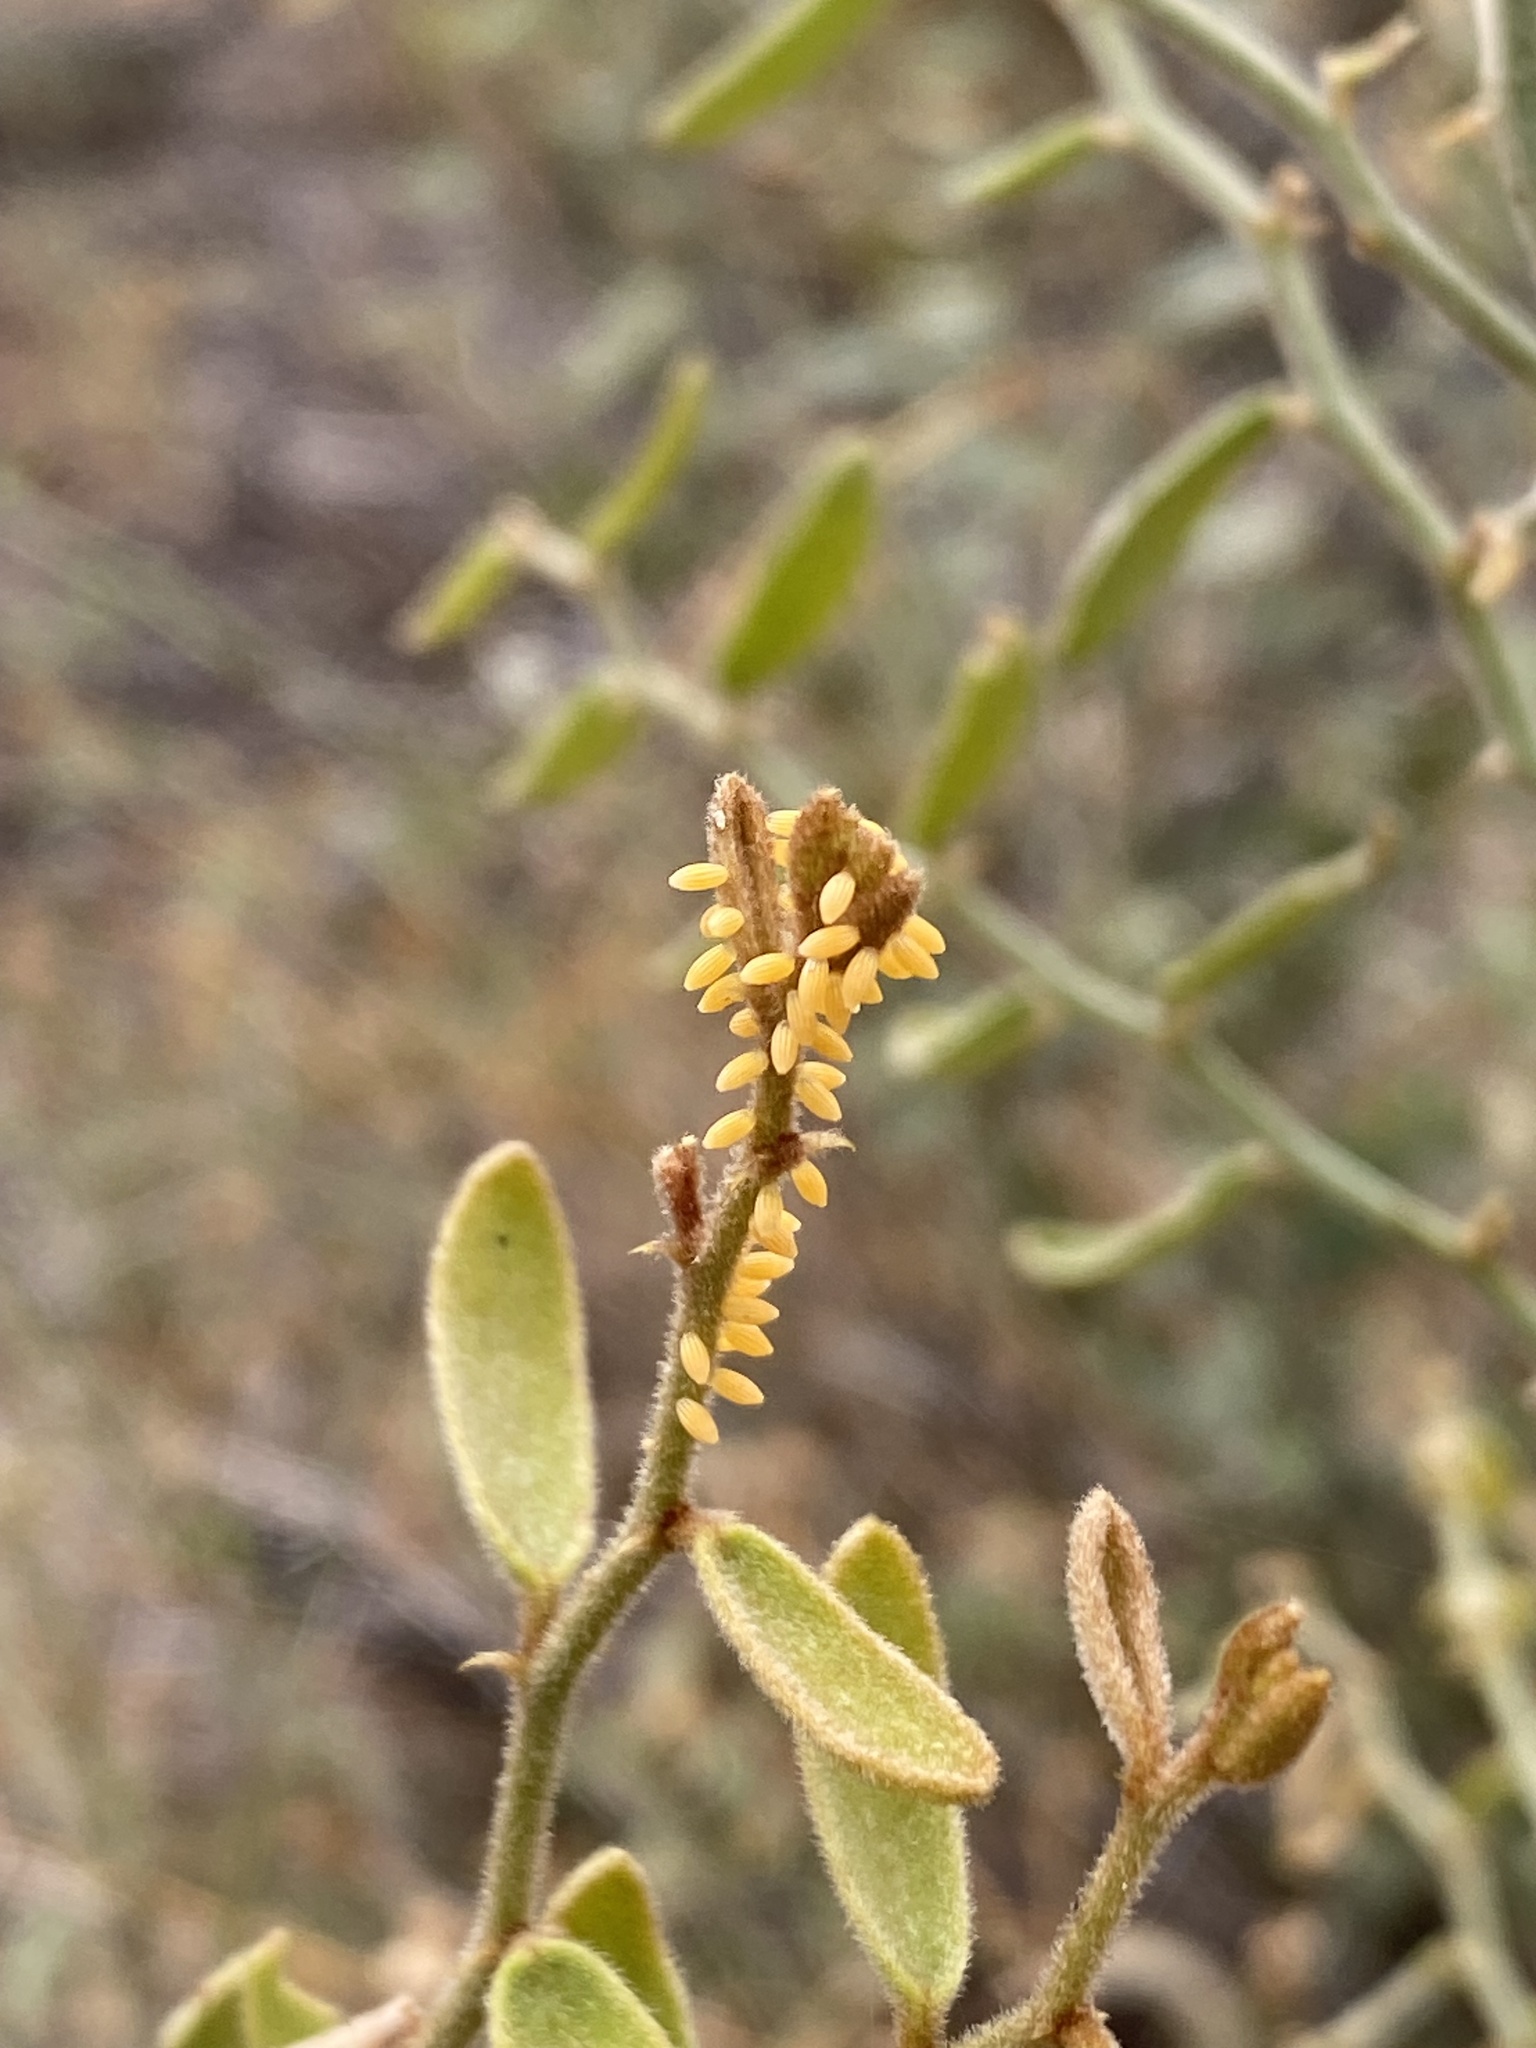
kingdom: Animalia
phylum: Arthropoda
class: Insecta
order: Lepidoptera
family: Pieridae
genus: Belenois
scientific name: Belenois java
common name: Caper white
